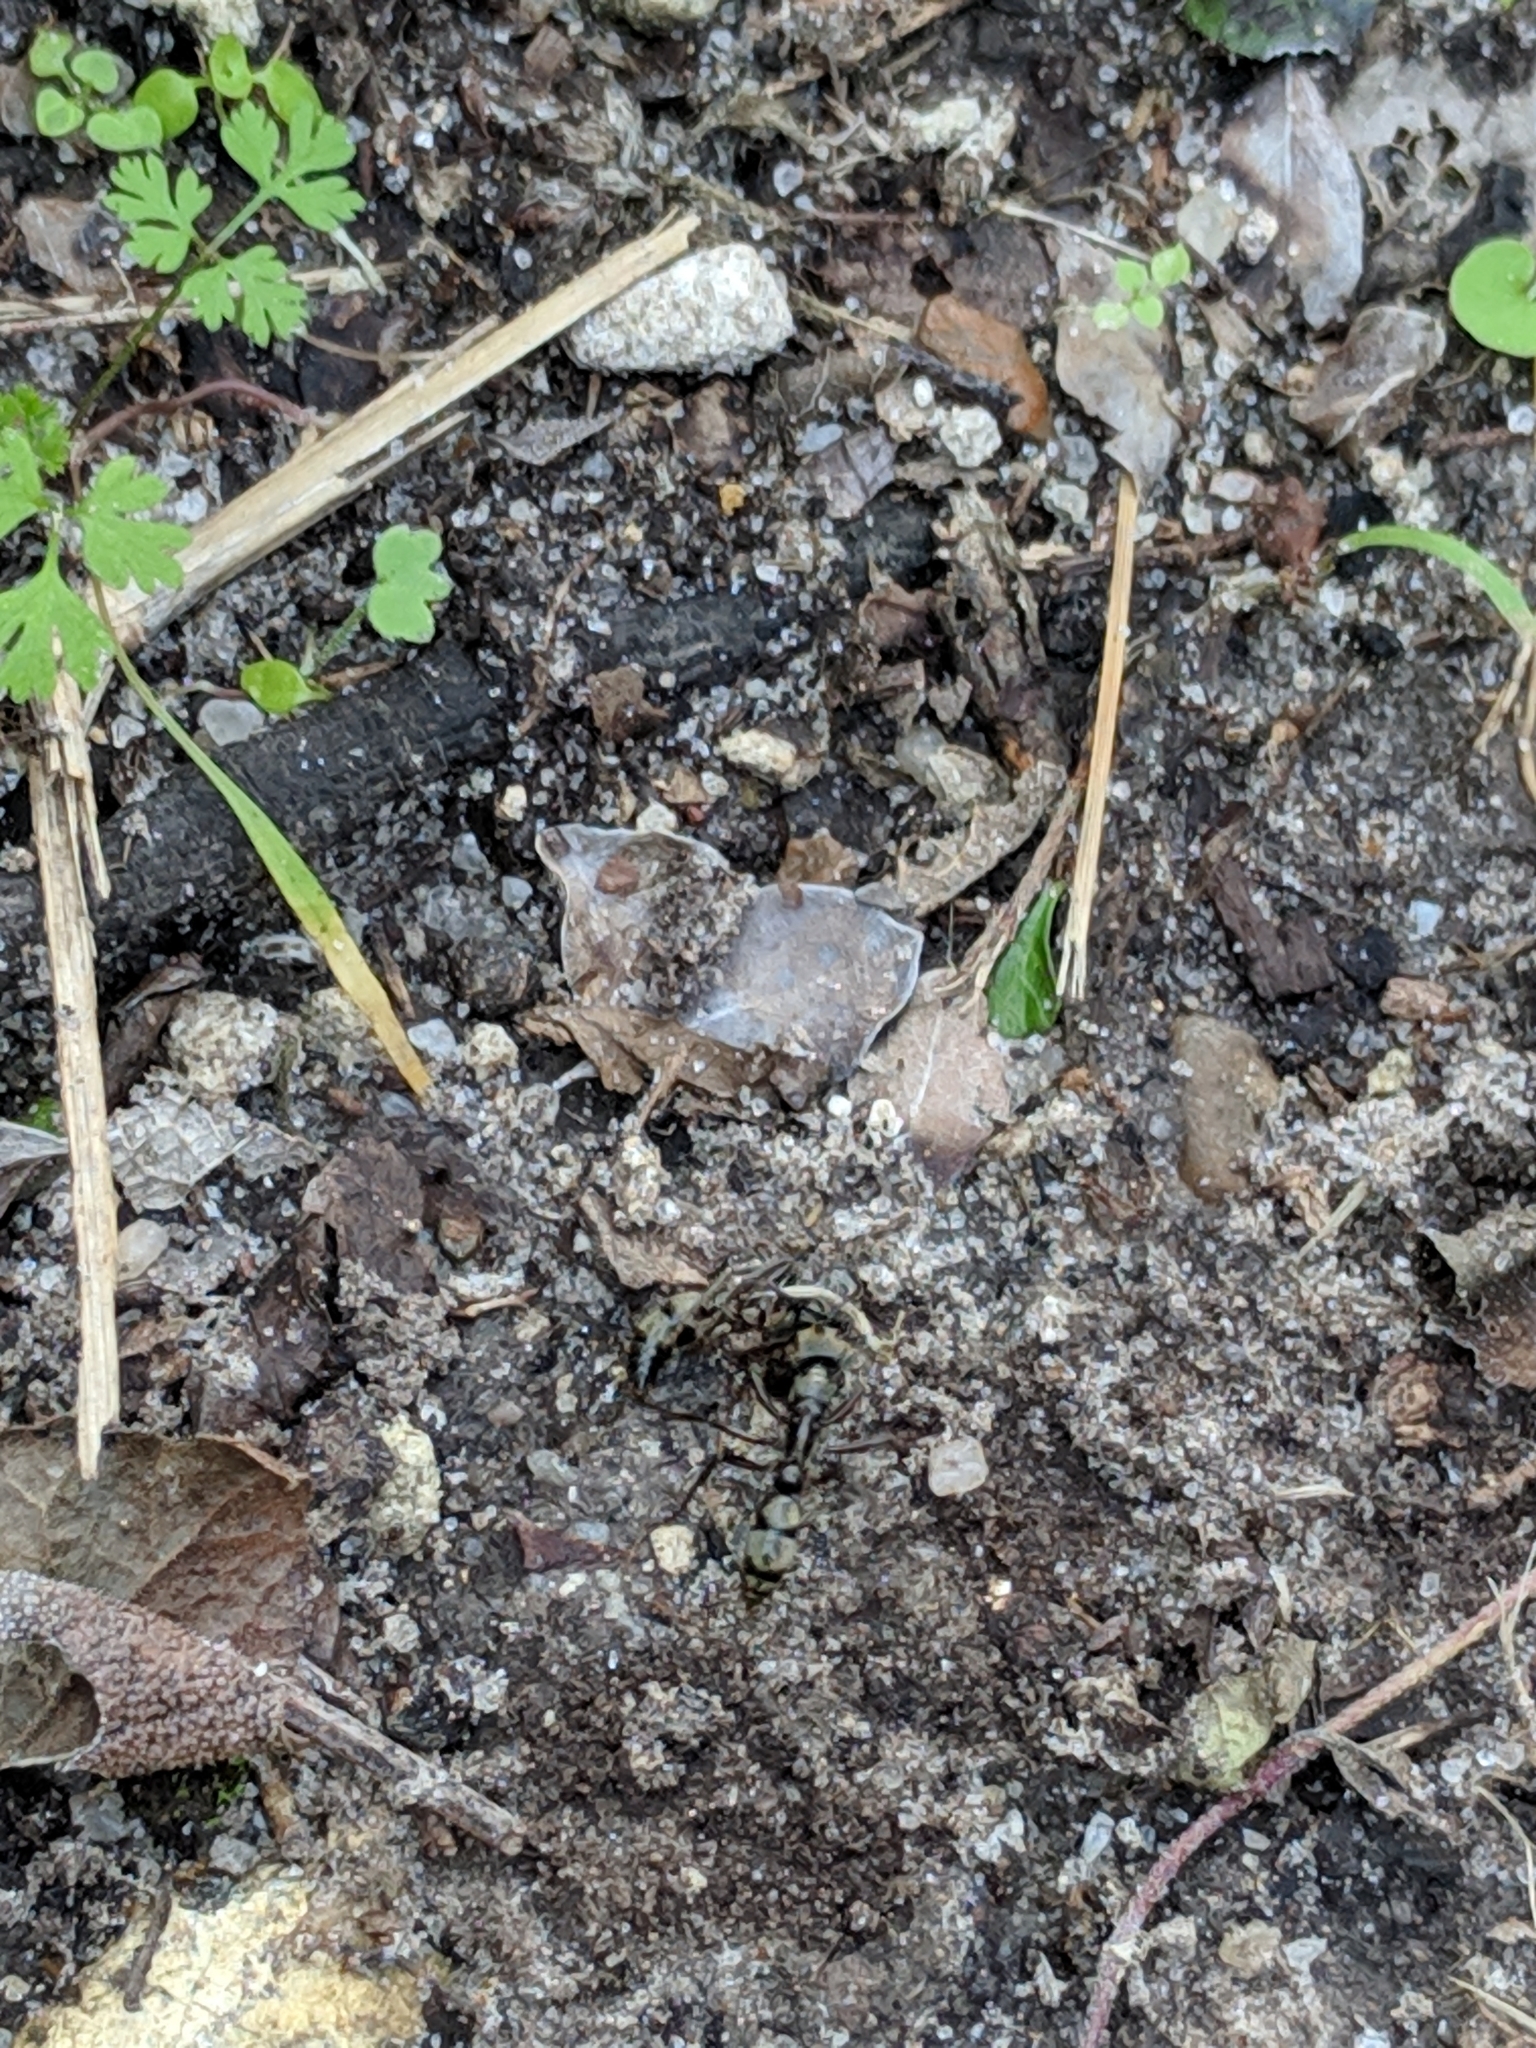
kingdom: Animalia
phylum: Arthropoda
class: Insecta
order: Hymenoptera
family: Formicidae
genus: Pachycondyla
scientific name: Pachycondyla villosa
